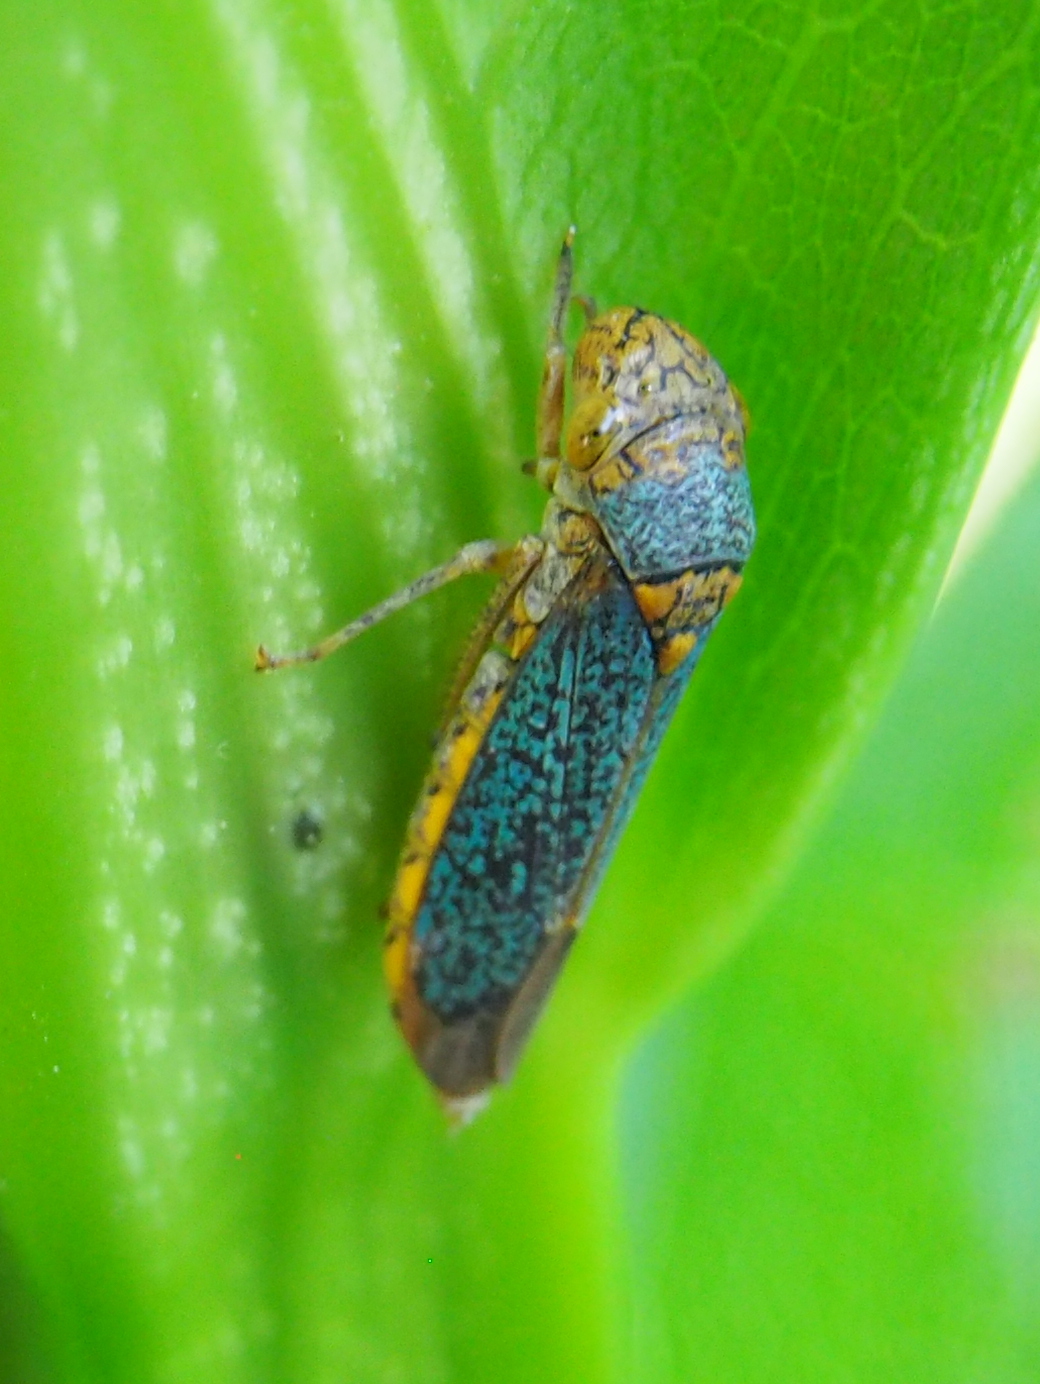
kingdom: Animalia
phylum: Arthropoda
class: Insecta
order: Hemiptera
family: Cicadellidae
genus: Oncometopia
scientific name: Oncometopia orbona
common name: Broad-headed sharpshooter
